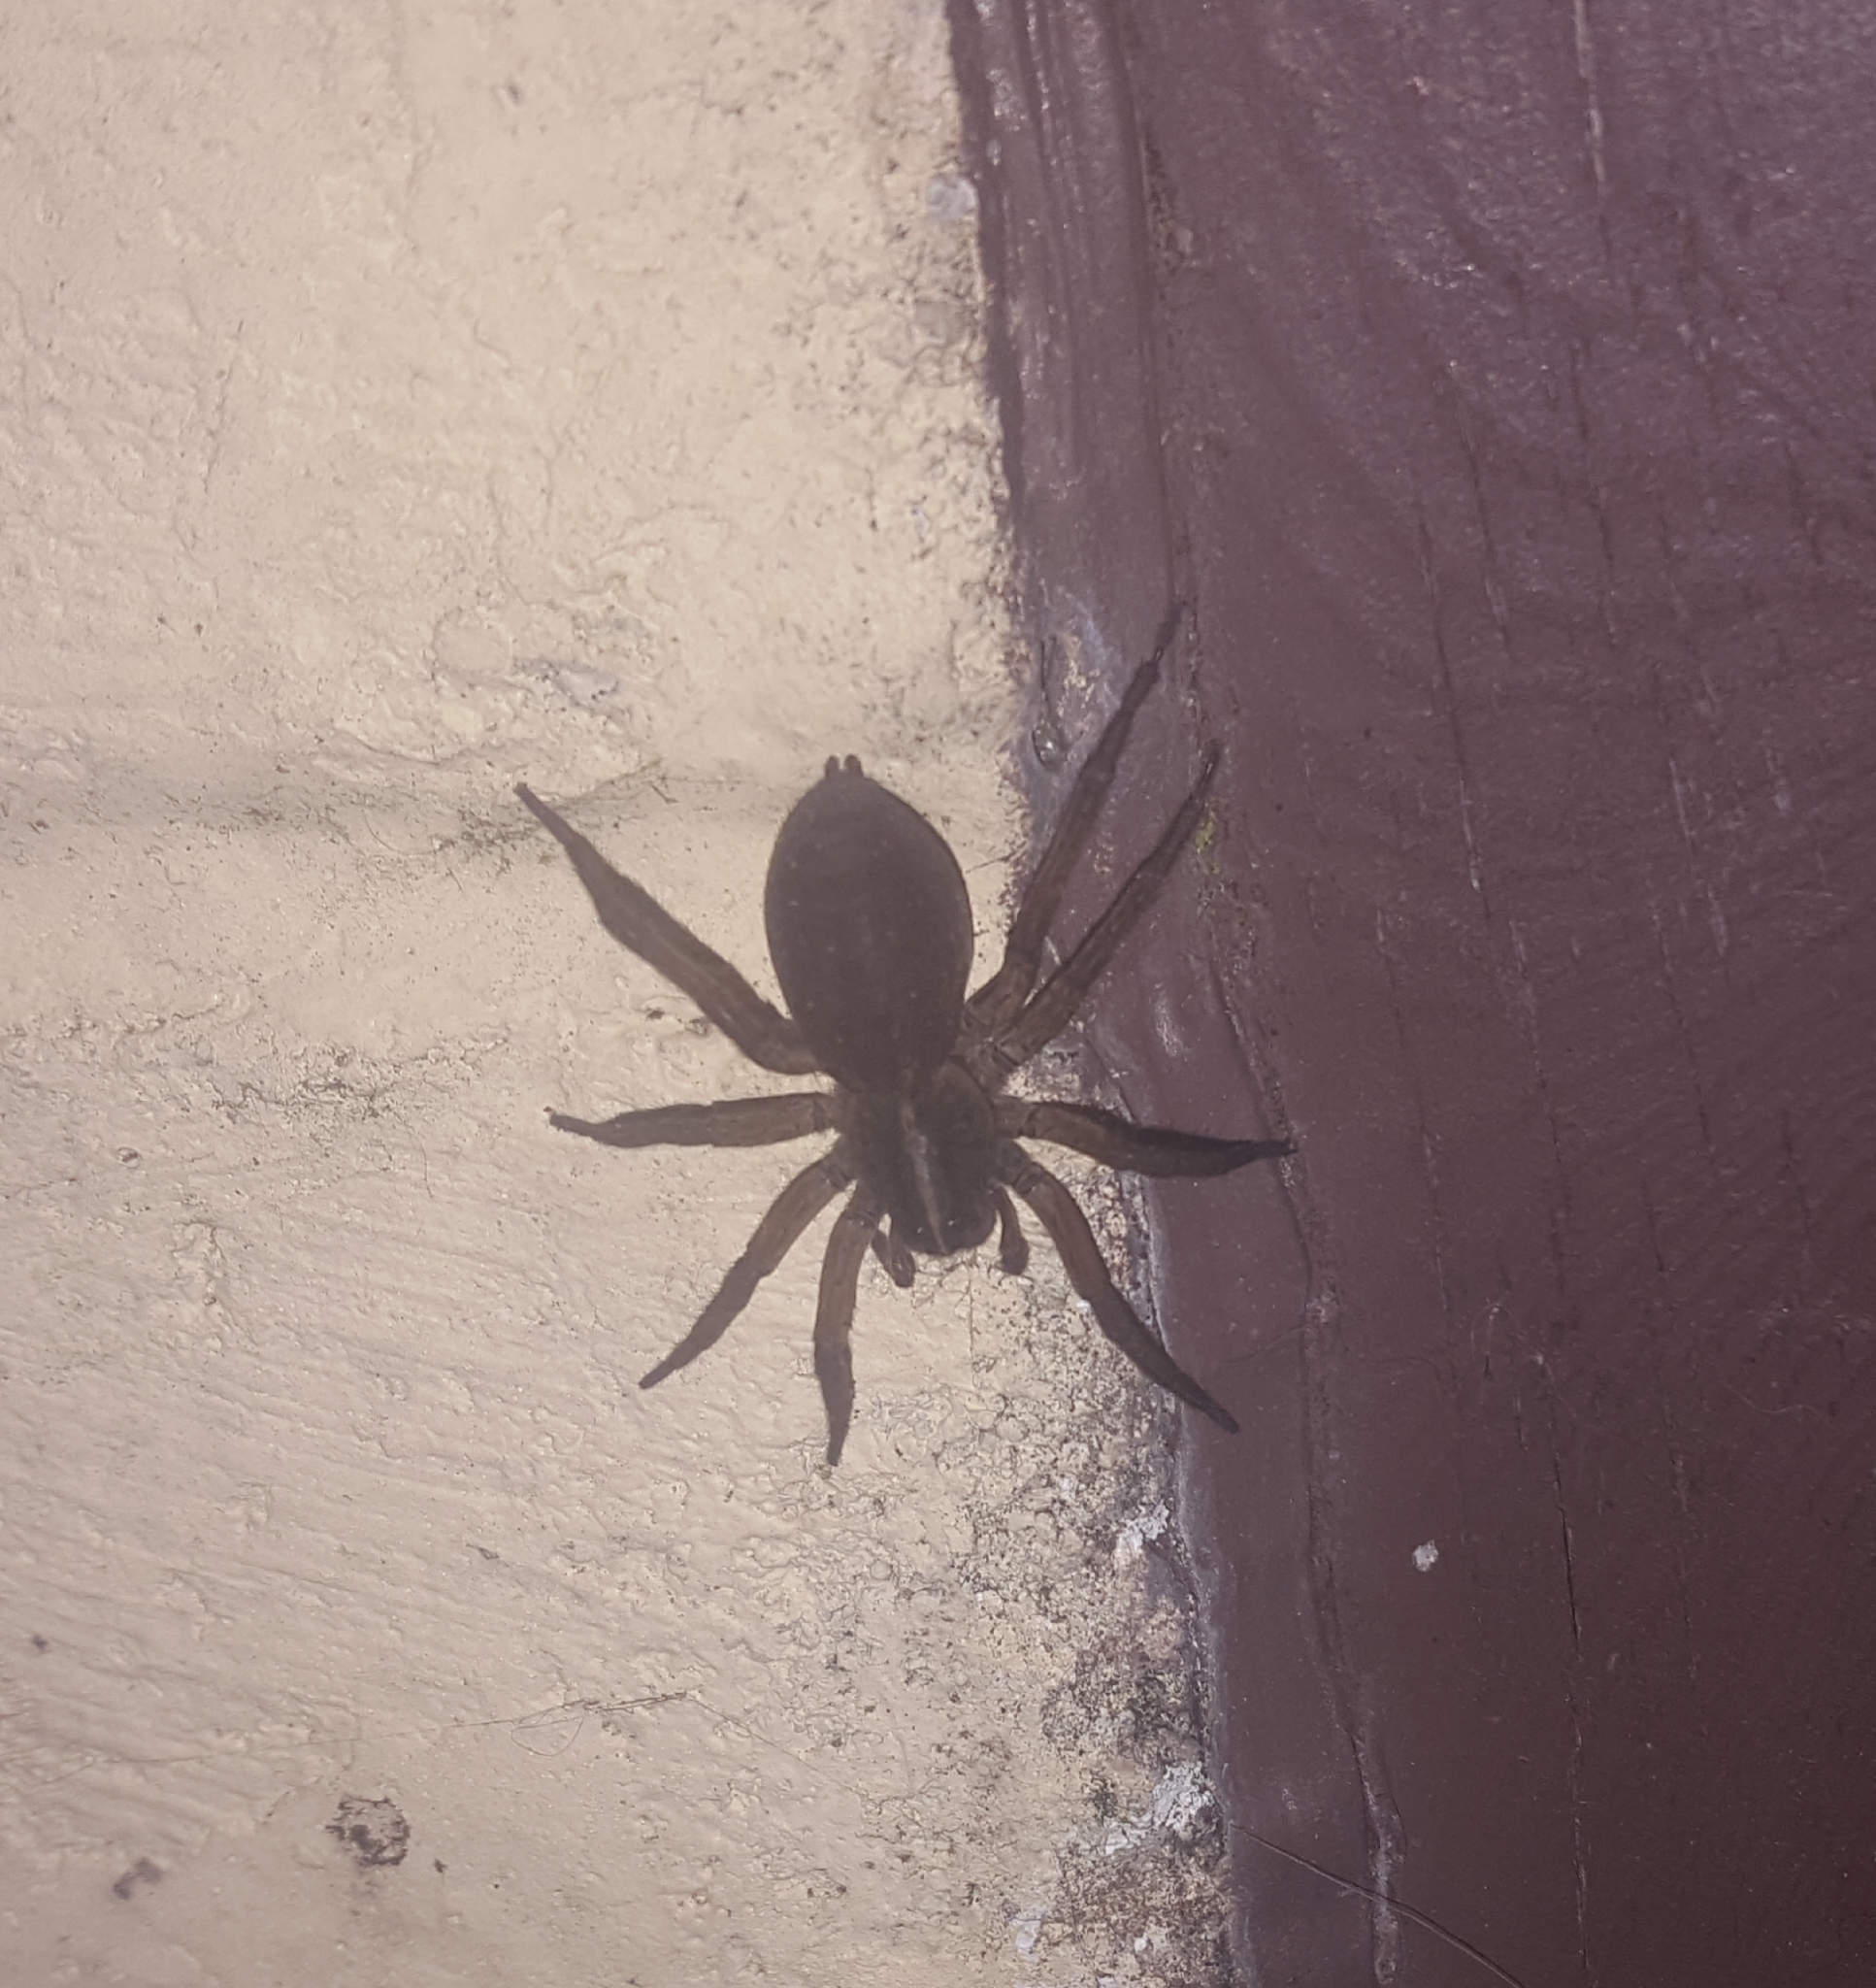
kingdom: Animalia
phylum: Arthropoda
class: Arachnida
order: Araneae
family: Lycosidae
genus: Tigrosa
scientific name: Tigrosa helluo
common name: Wetland giant wolf spider
